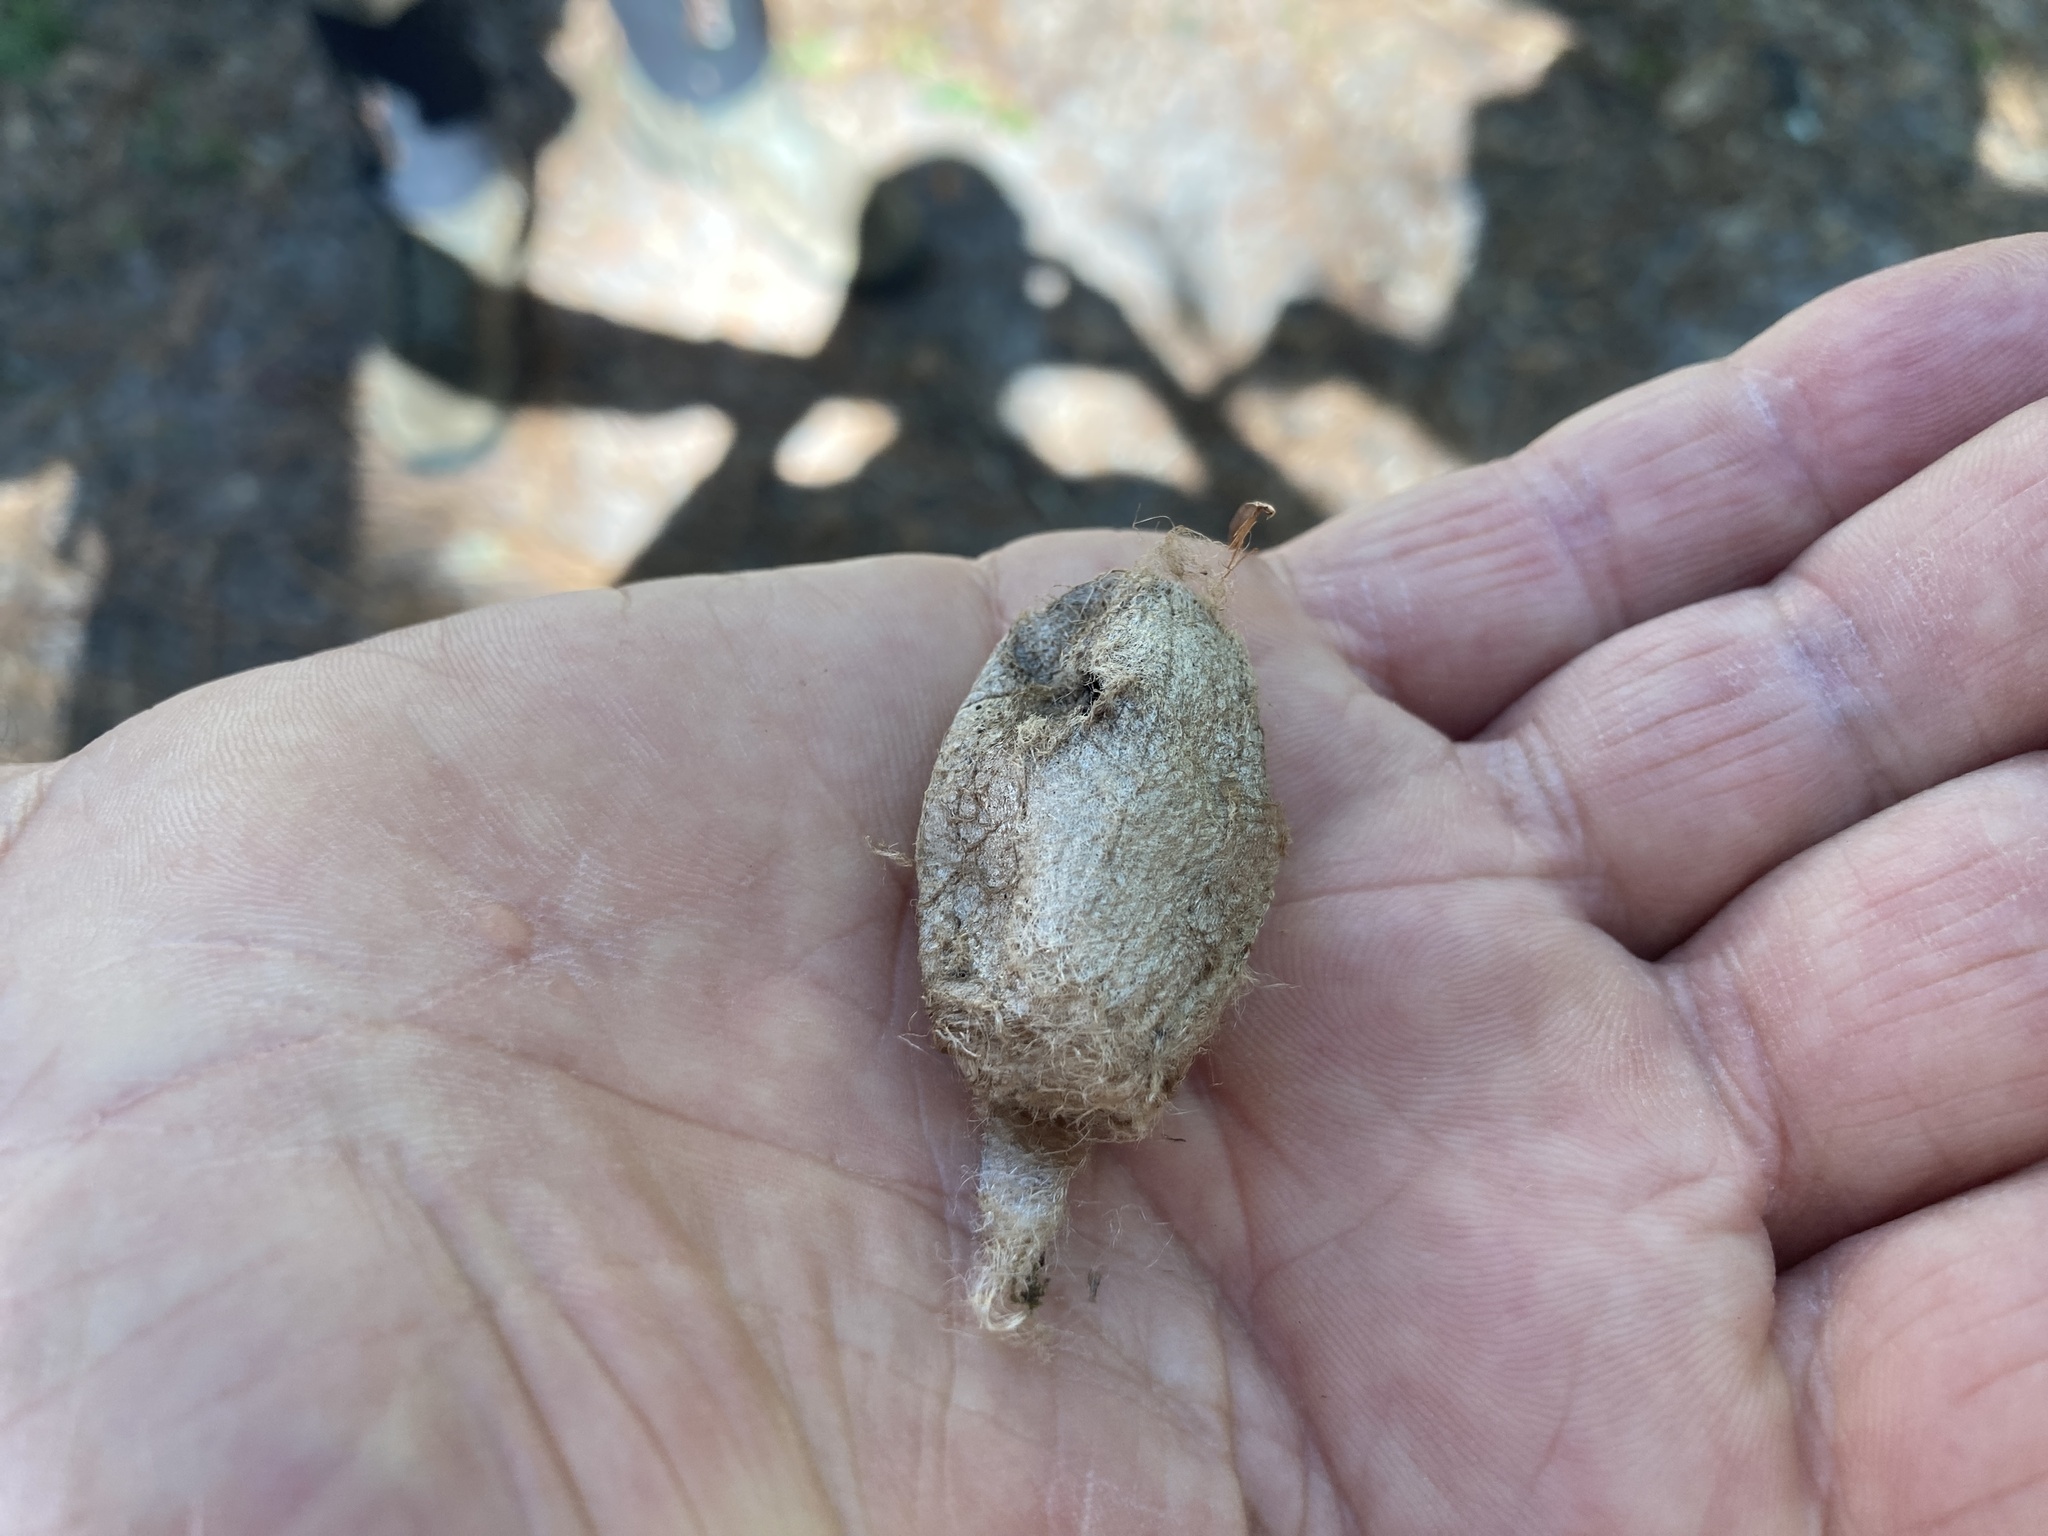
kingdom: Animalia
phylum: Arthropoda
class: Insecta
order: Lepidoptera
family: Saturniidae
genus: Antheraea
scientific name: Antheraea polyphemus
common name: Polyphemus moth
